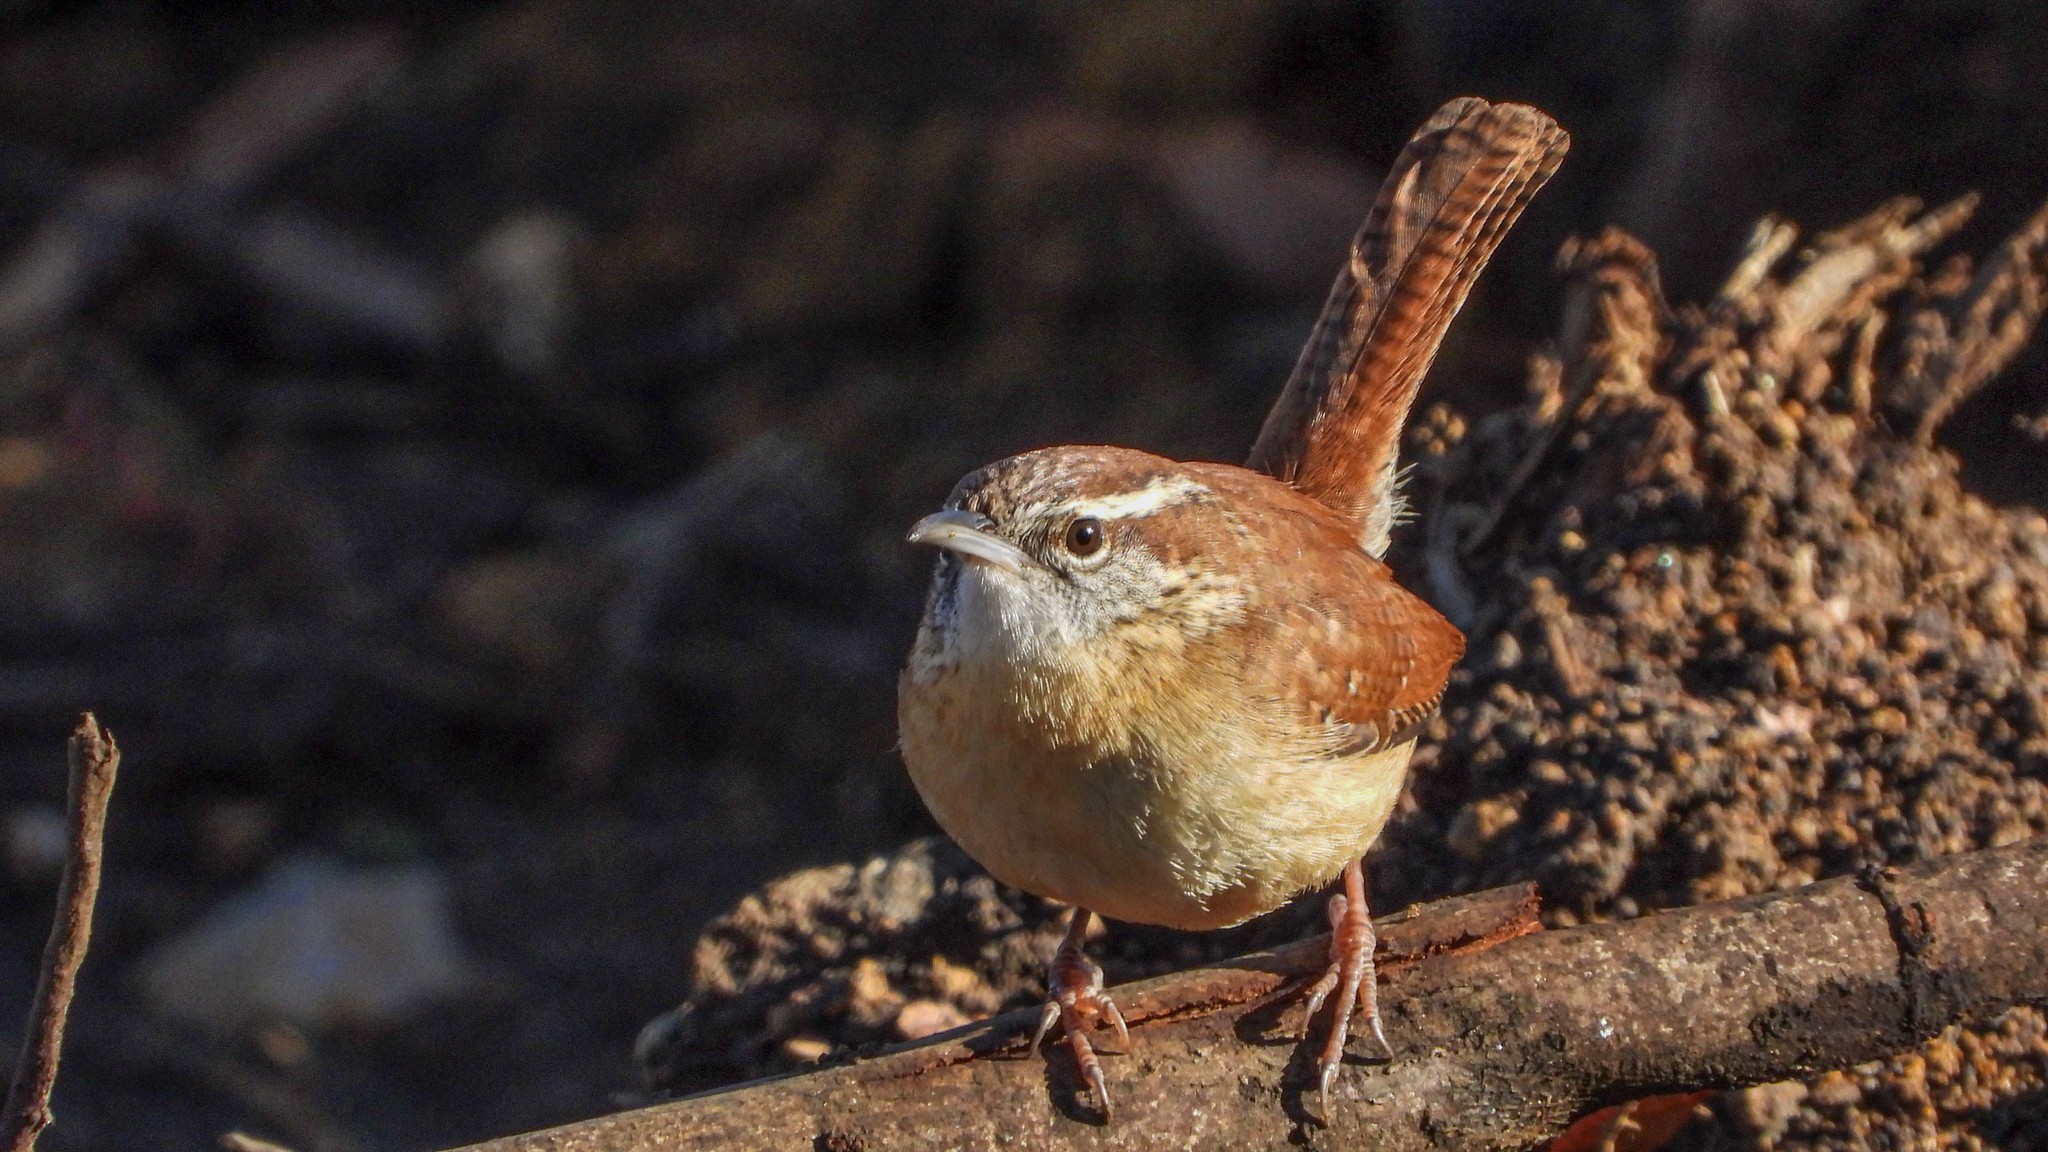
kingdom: Animalia
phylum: Chordata
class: Aves
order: Passeriformes
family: Troglodytidae
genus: Thryothorus
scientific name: Thryothorus ludovicianus
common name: Carolina wren
